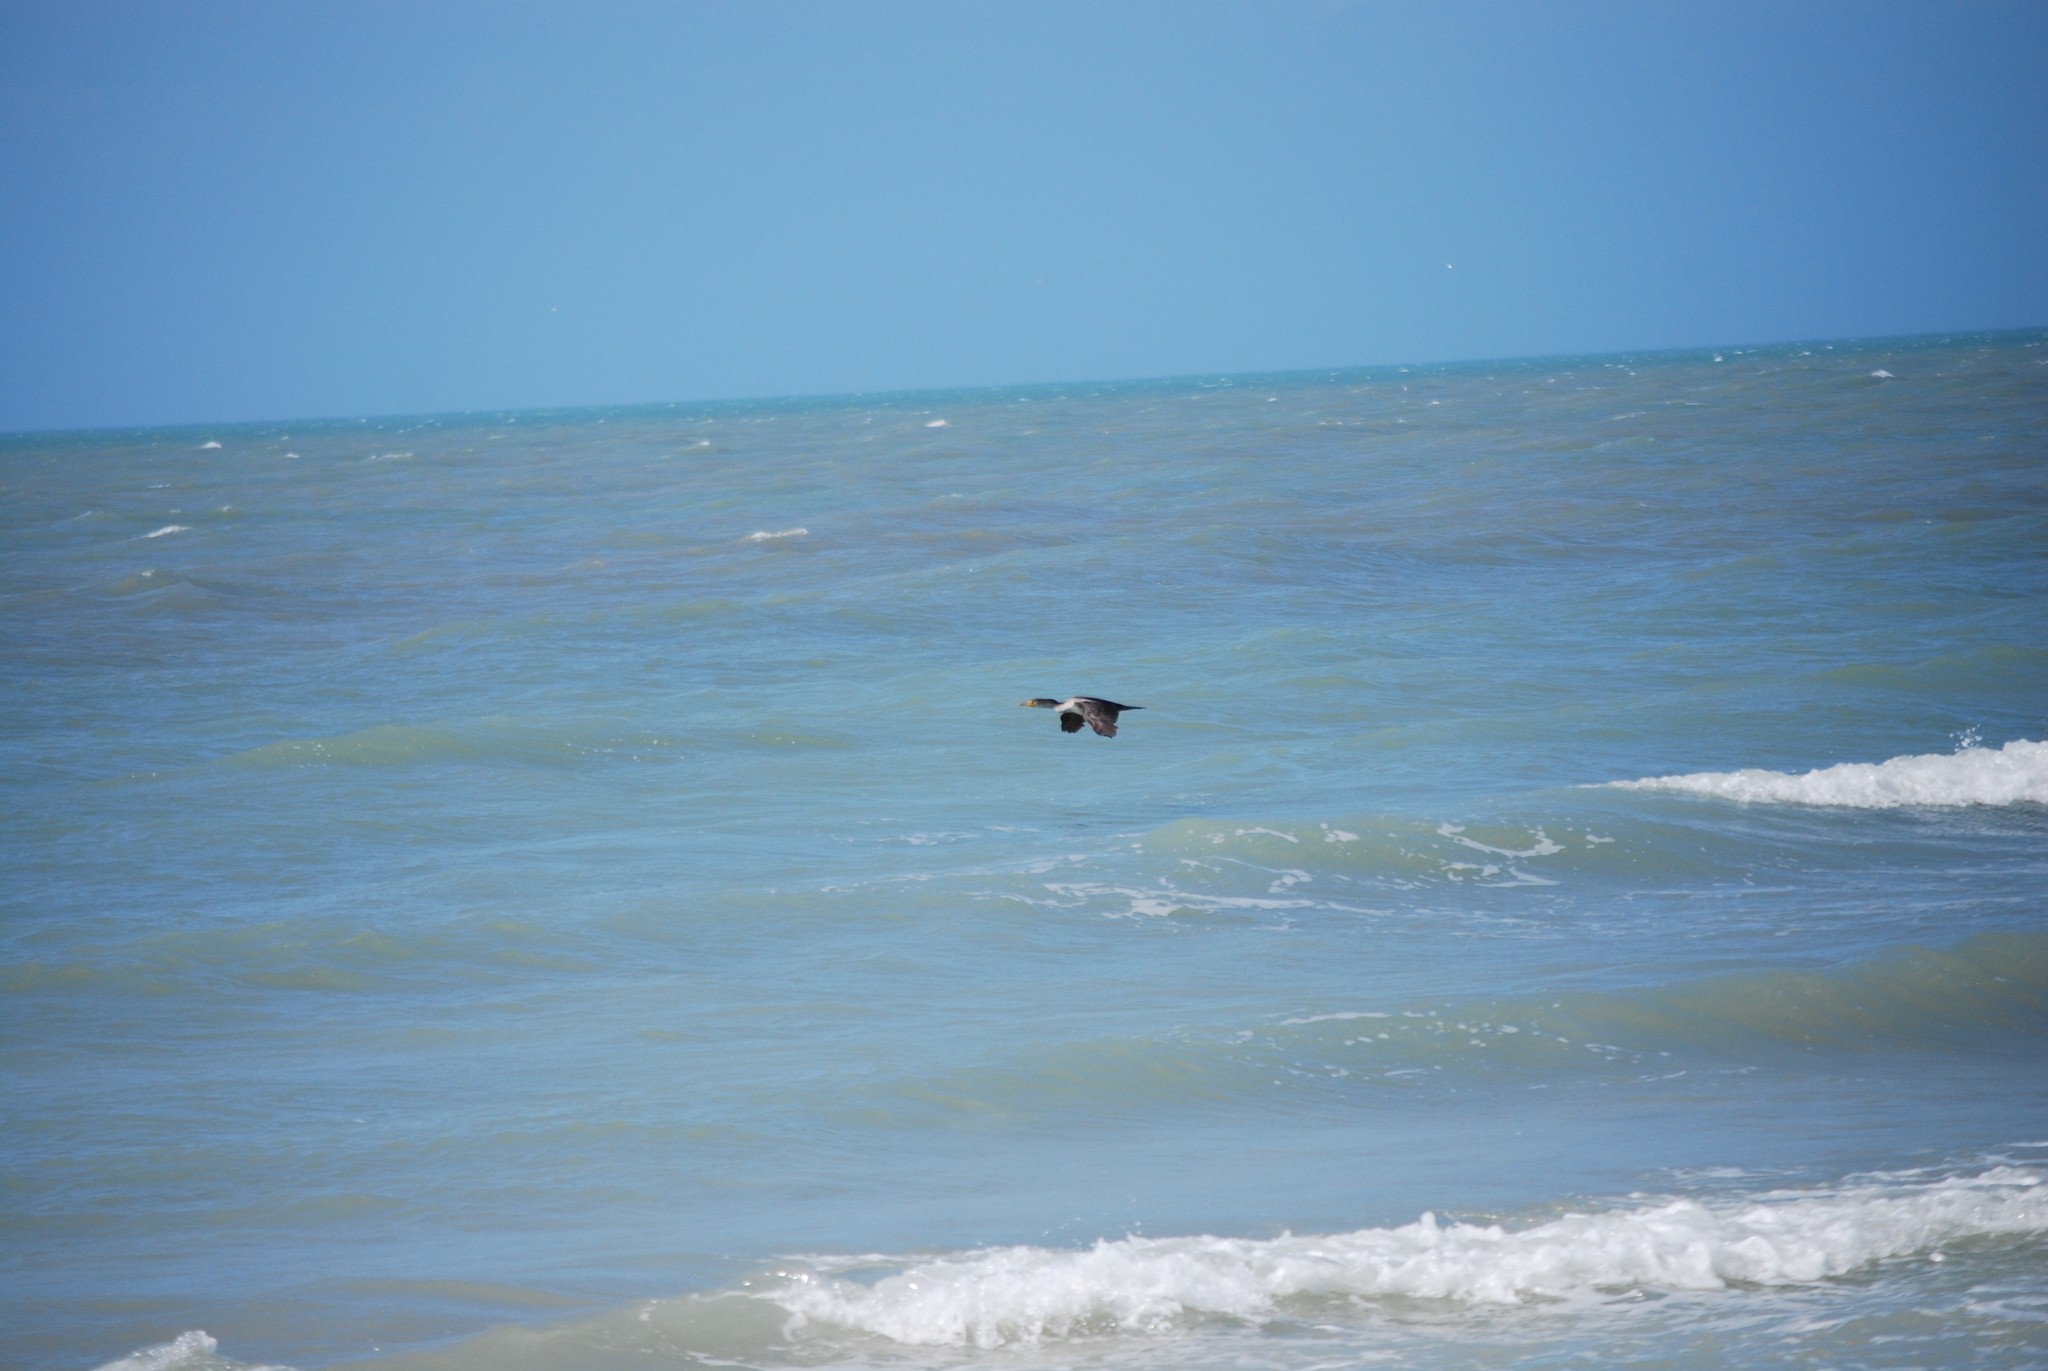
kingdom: Animalia
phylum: Chordata
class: Aves
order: Suliformes
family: Phalacrocoracidae
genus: Phalacrocorax
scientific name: Phalacrocorax auritus
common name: Double-crested cormorant
